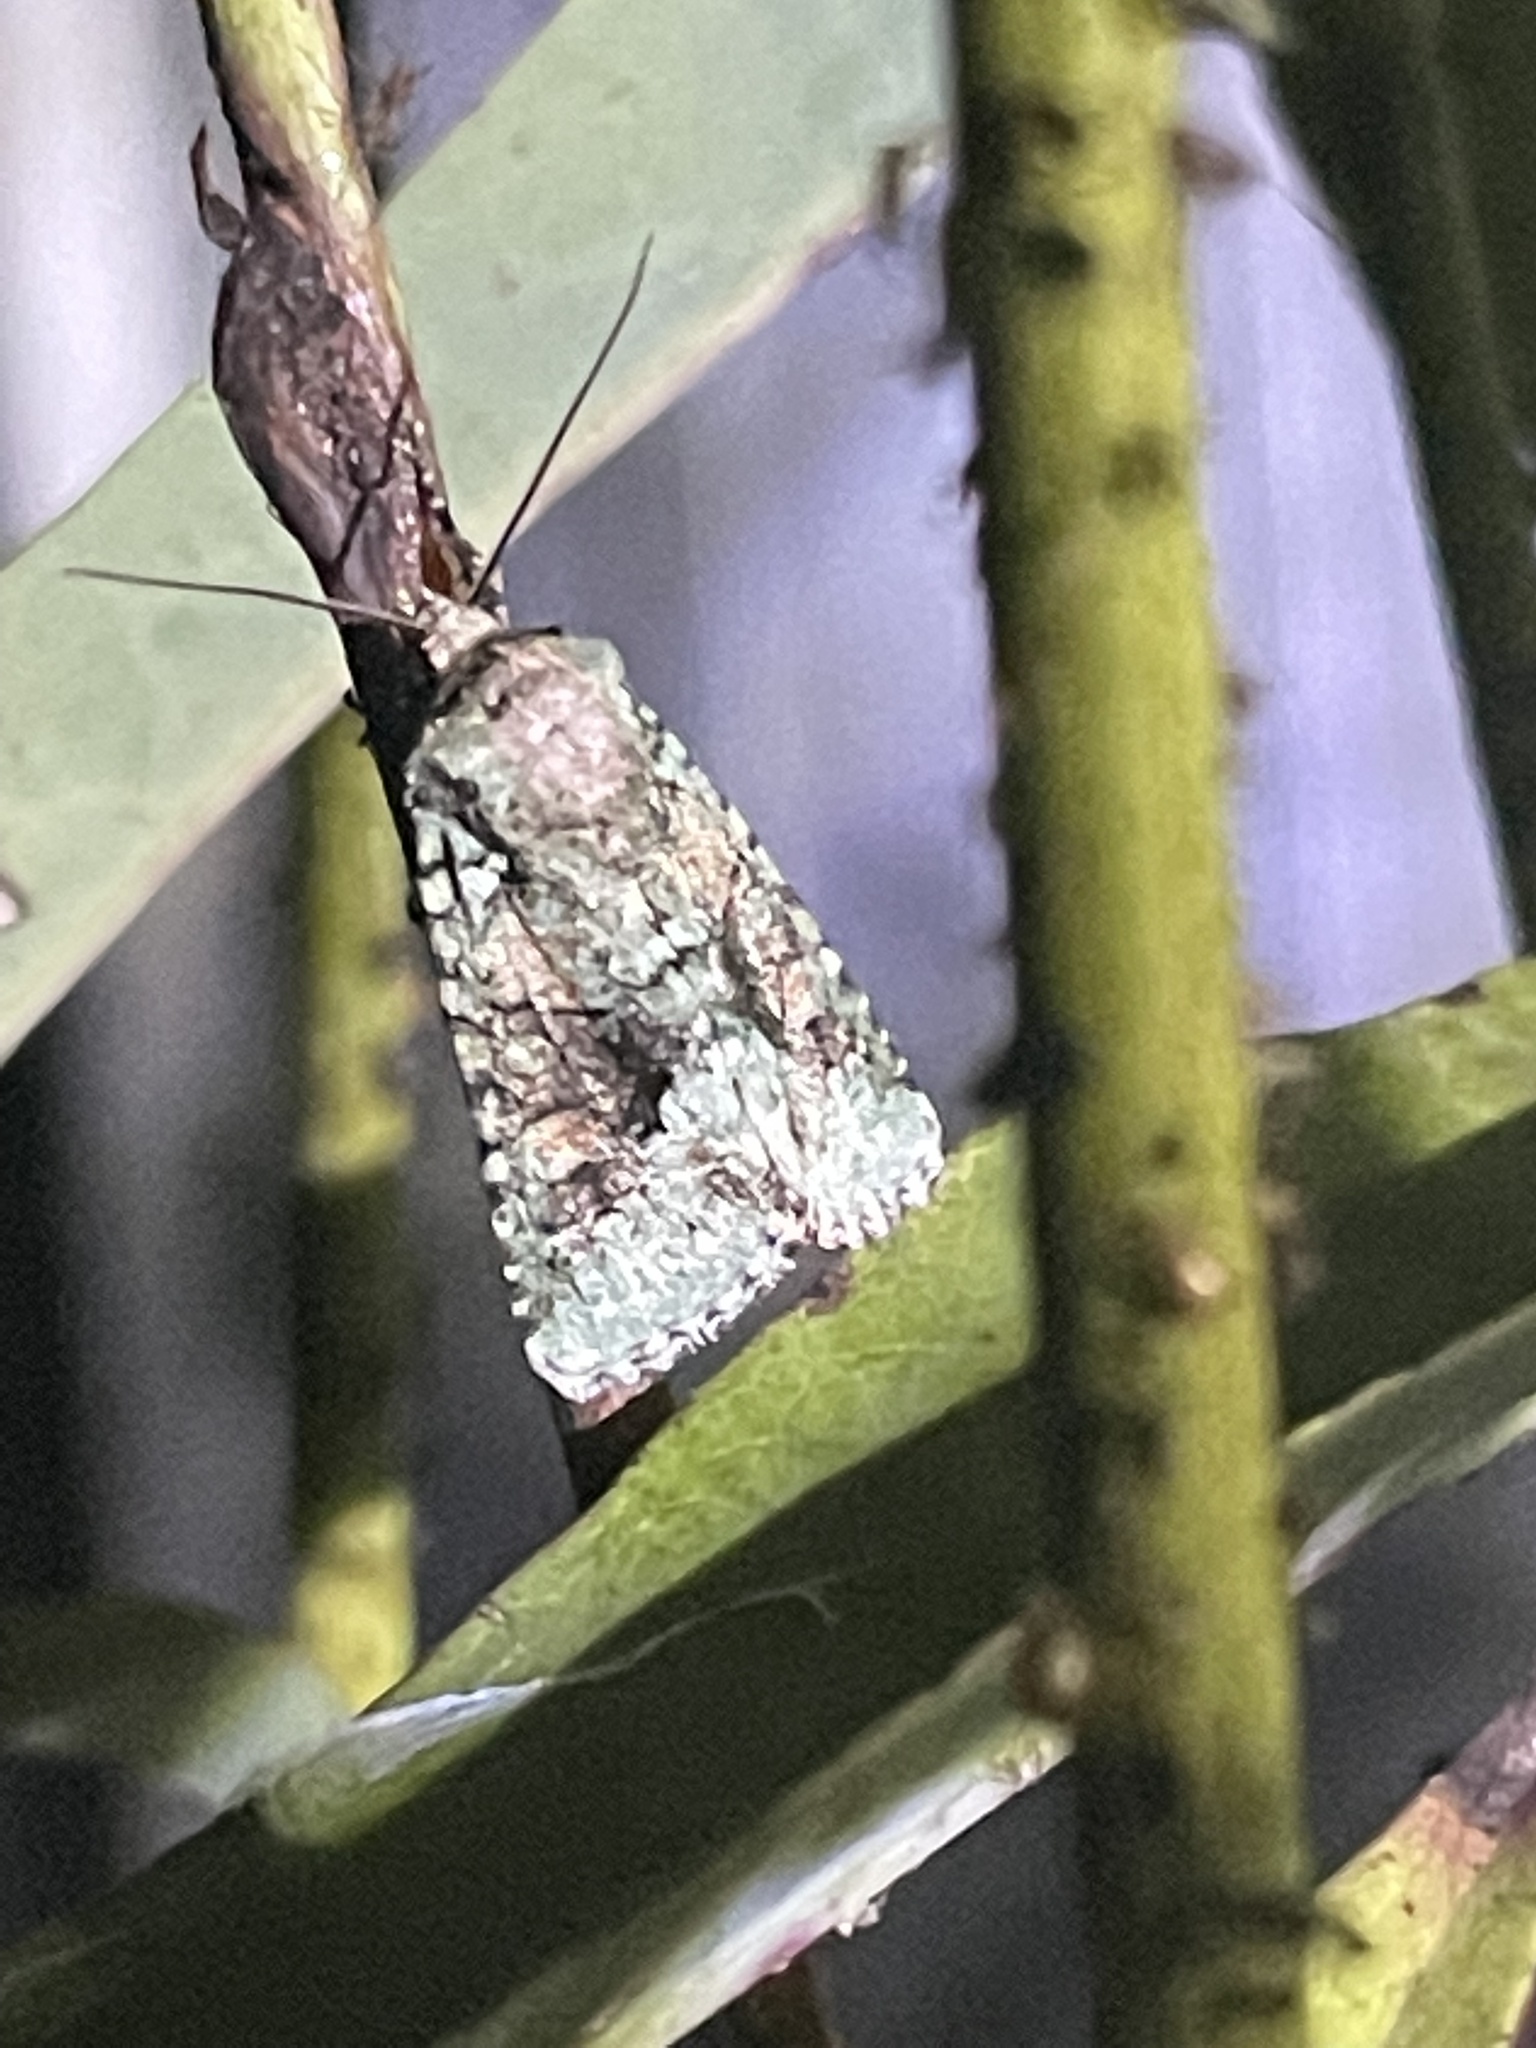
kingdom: Animalia
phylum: Arthropoda
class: Insecta
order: Lepidoptera
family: Noctuidae
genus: Lacinipolia
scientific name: Lacinipolia explicata
